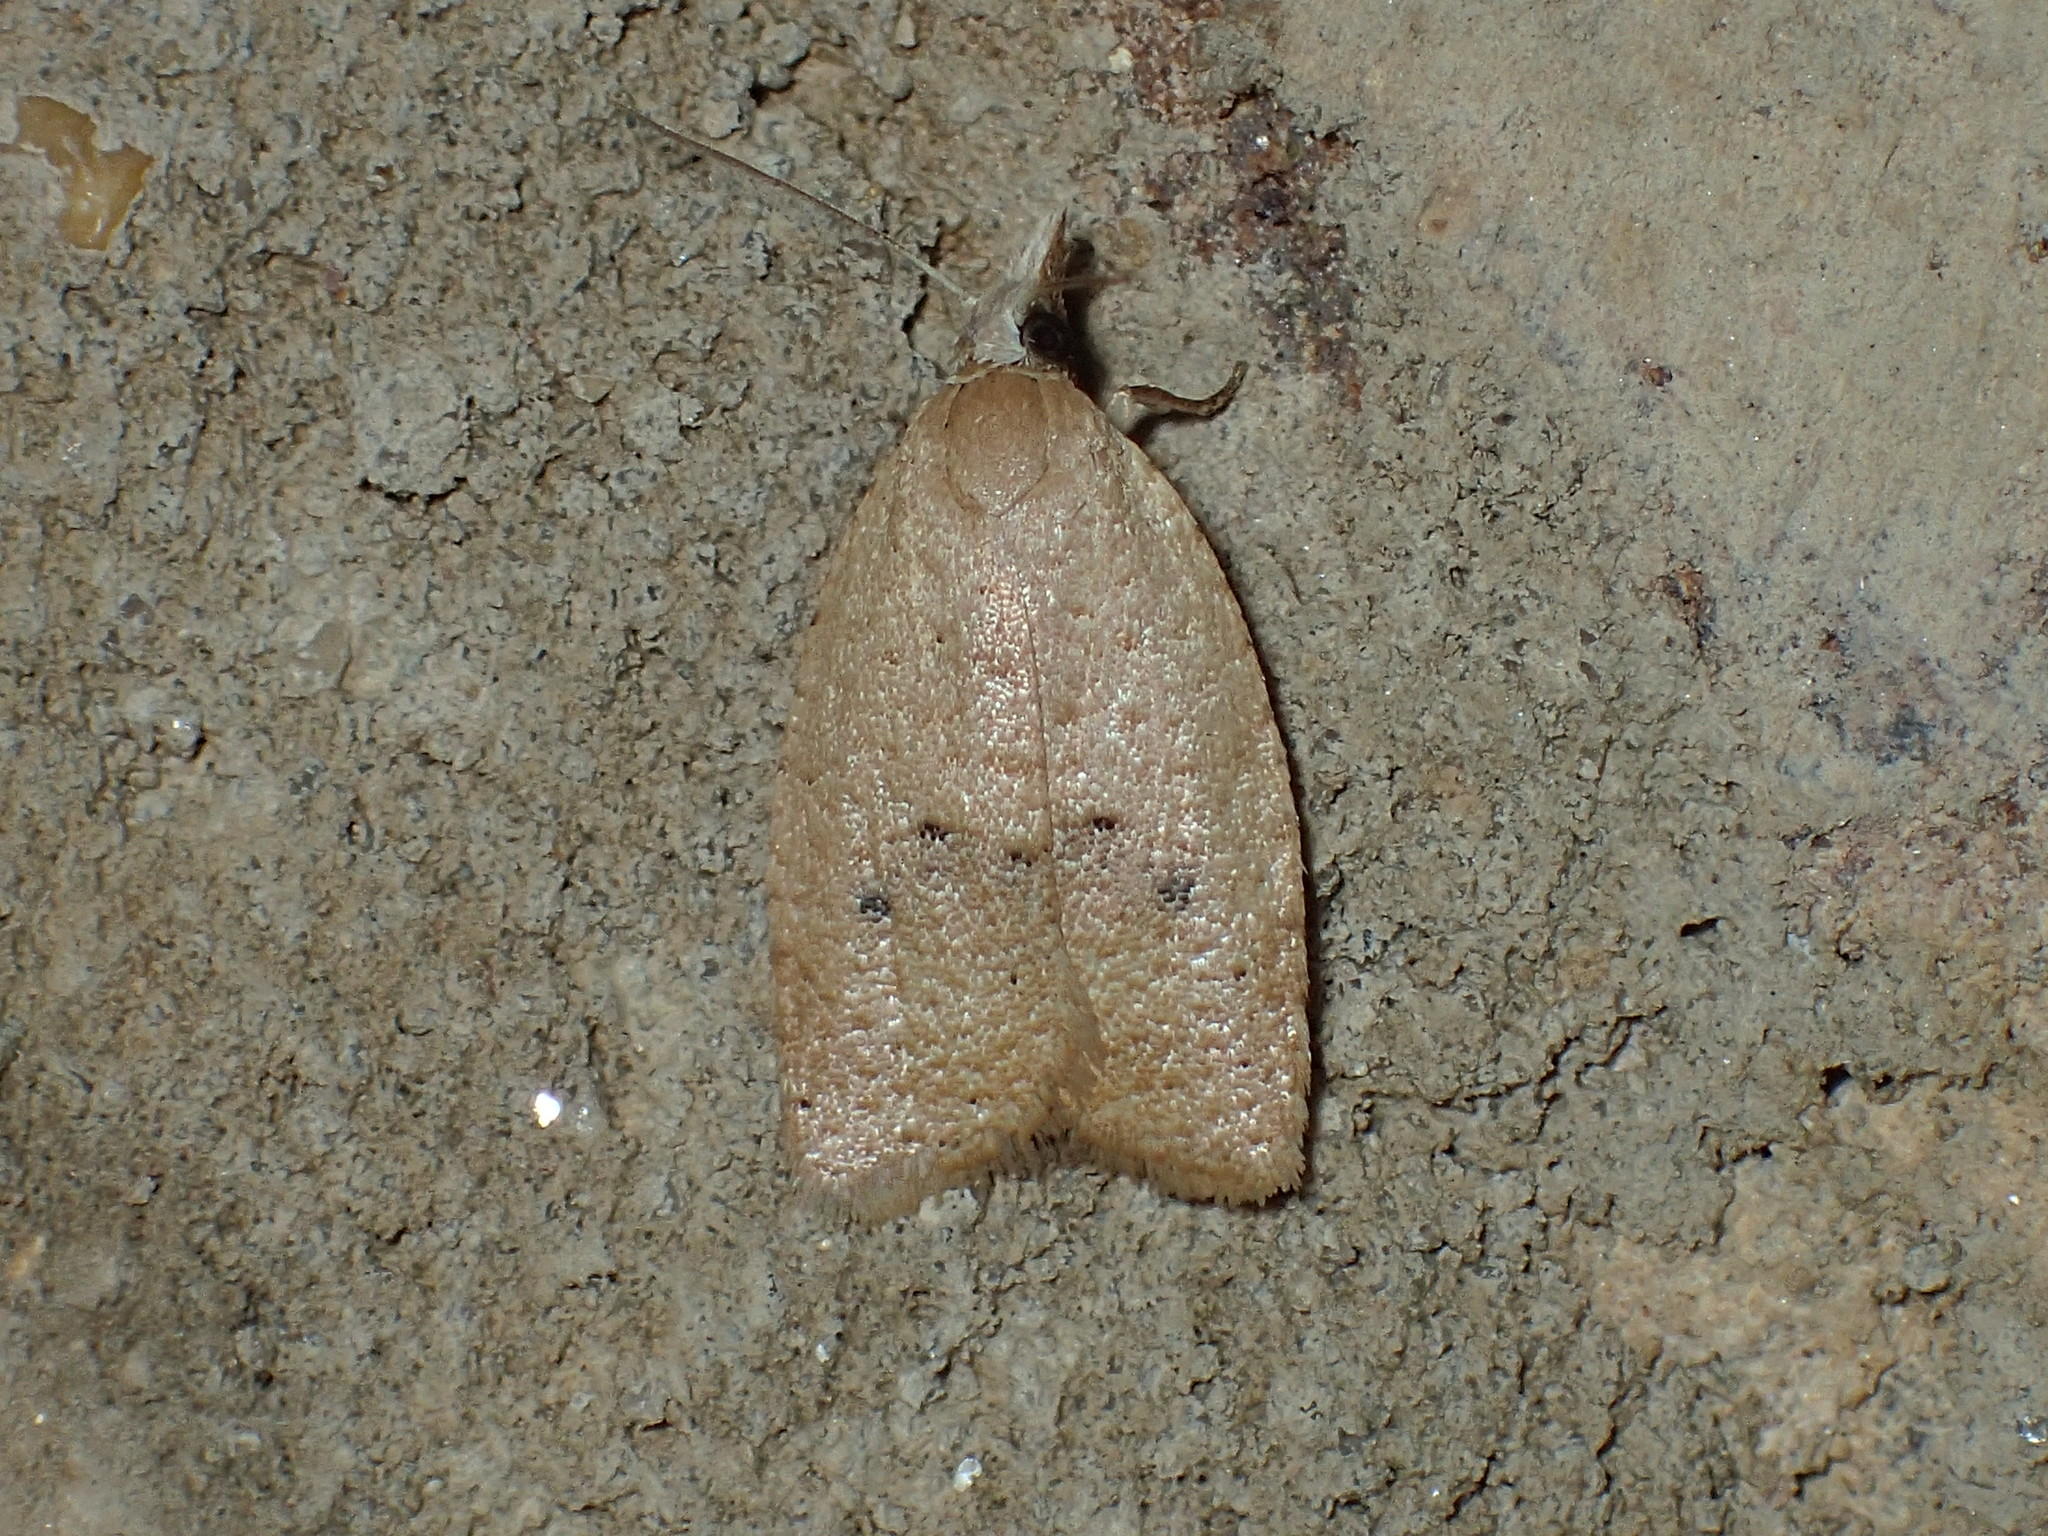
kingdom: Animalia
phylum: Arthropoda
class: Insecta
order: Lepidoptera
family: Tortricidae
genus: Sparganothoides
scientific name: Sparganothoides lentiginosana
